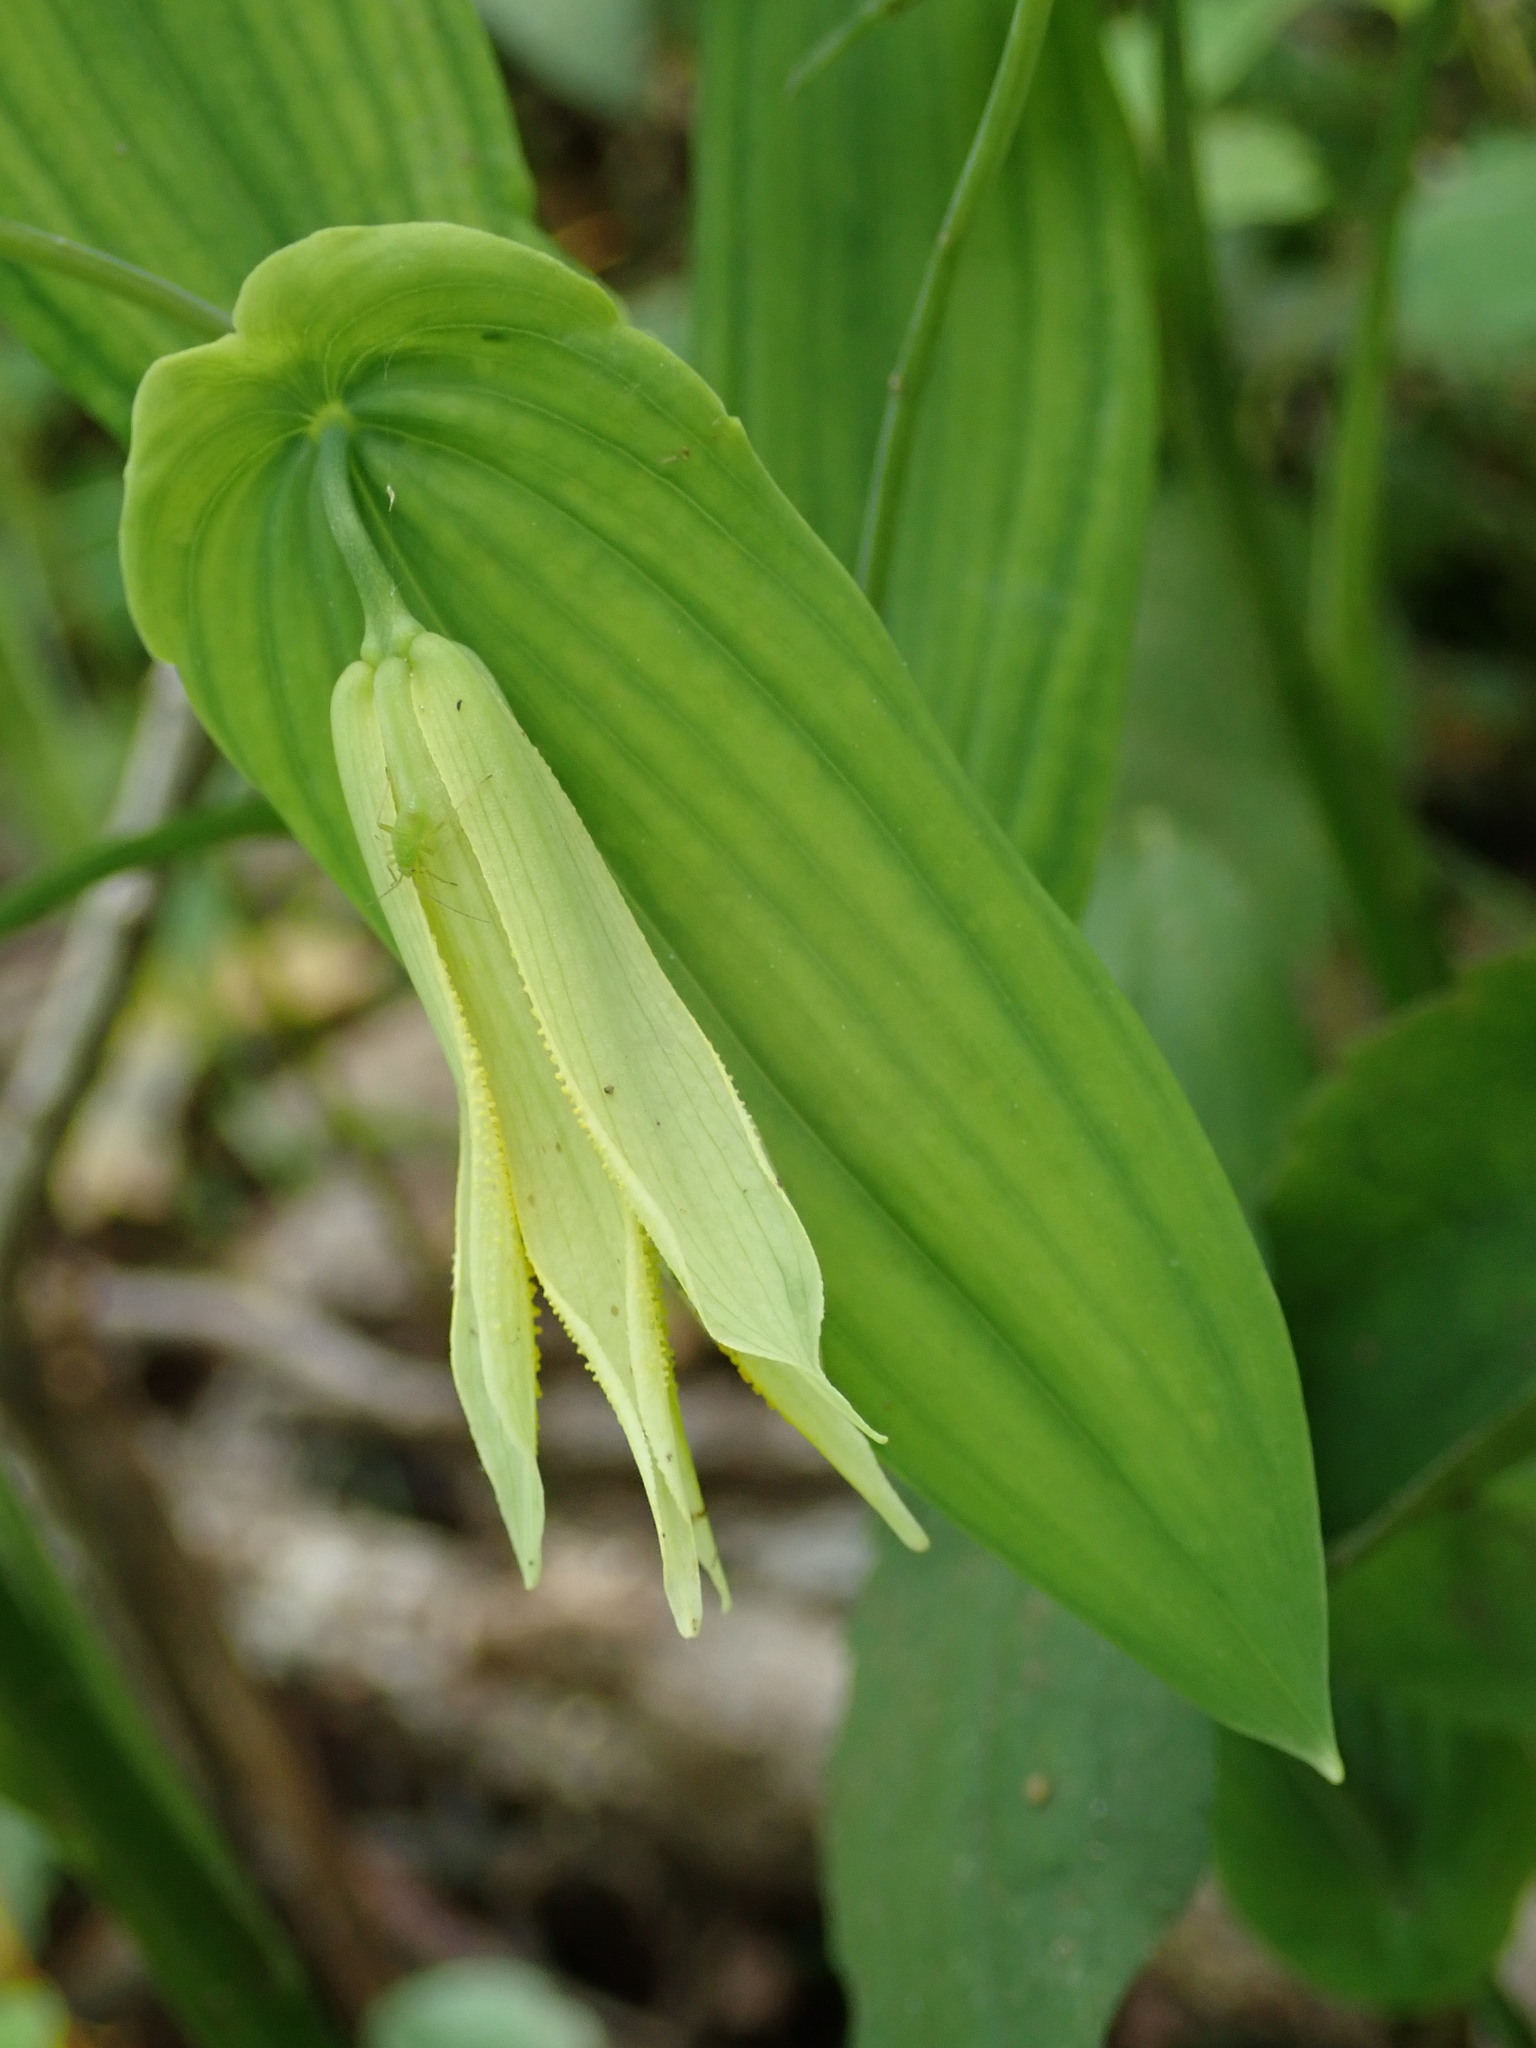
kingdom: Plantae
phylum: Tracheophyta
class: Liliopsida
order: Liliales
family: Colchicaceae
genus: Uvularia
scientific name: Uvularia perfoliata
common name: Perfoliate bellwort
